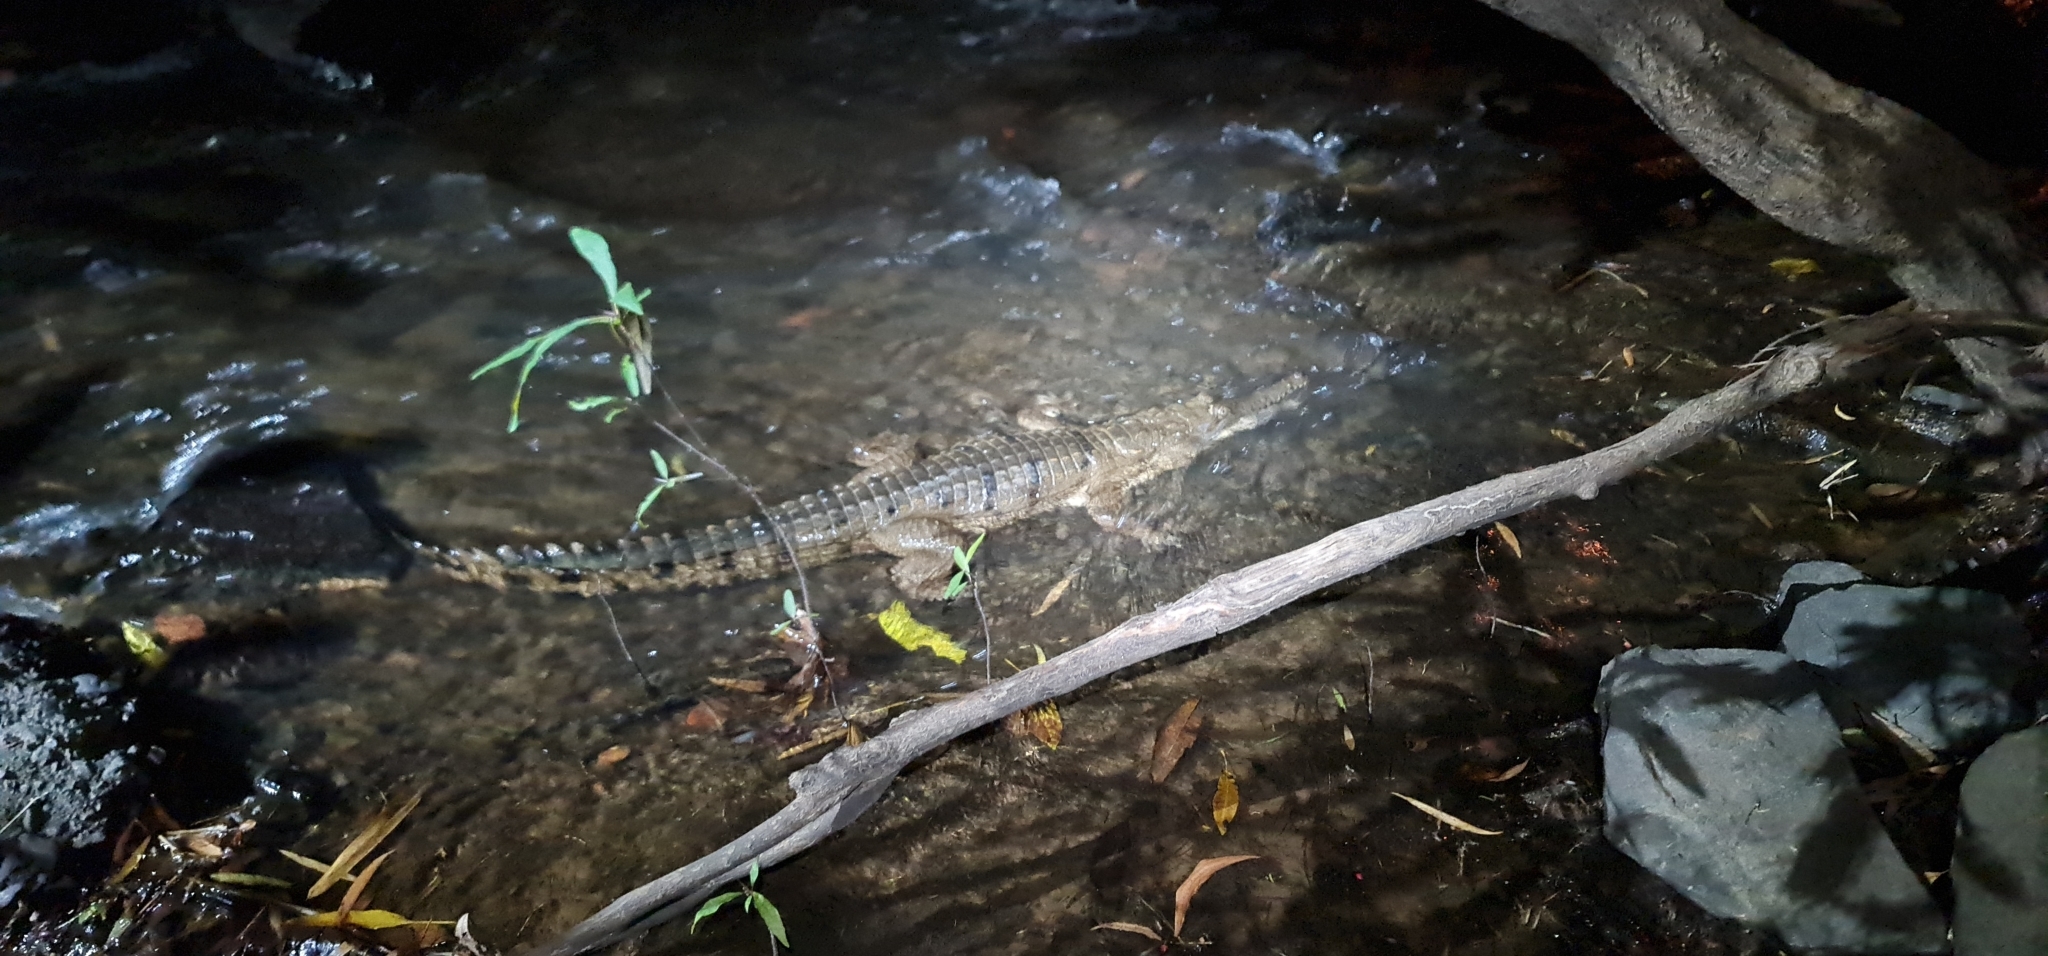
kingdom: Animalia
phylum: Chordata
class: Crocodylia
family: Crocodylidae
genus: Crocodylus
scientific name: Crocodylus johnsoni
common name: Freshwater crocodile
